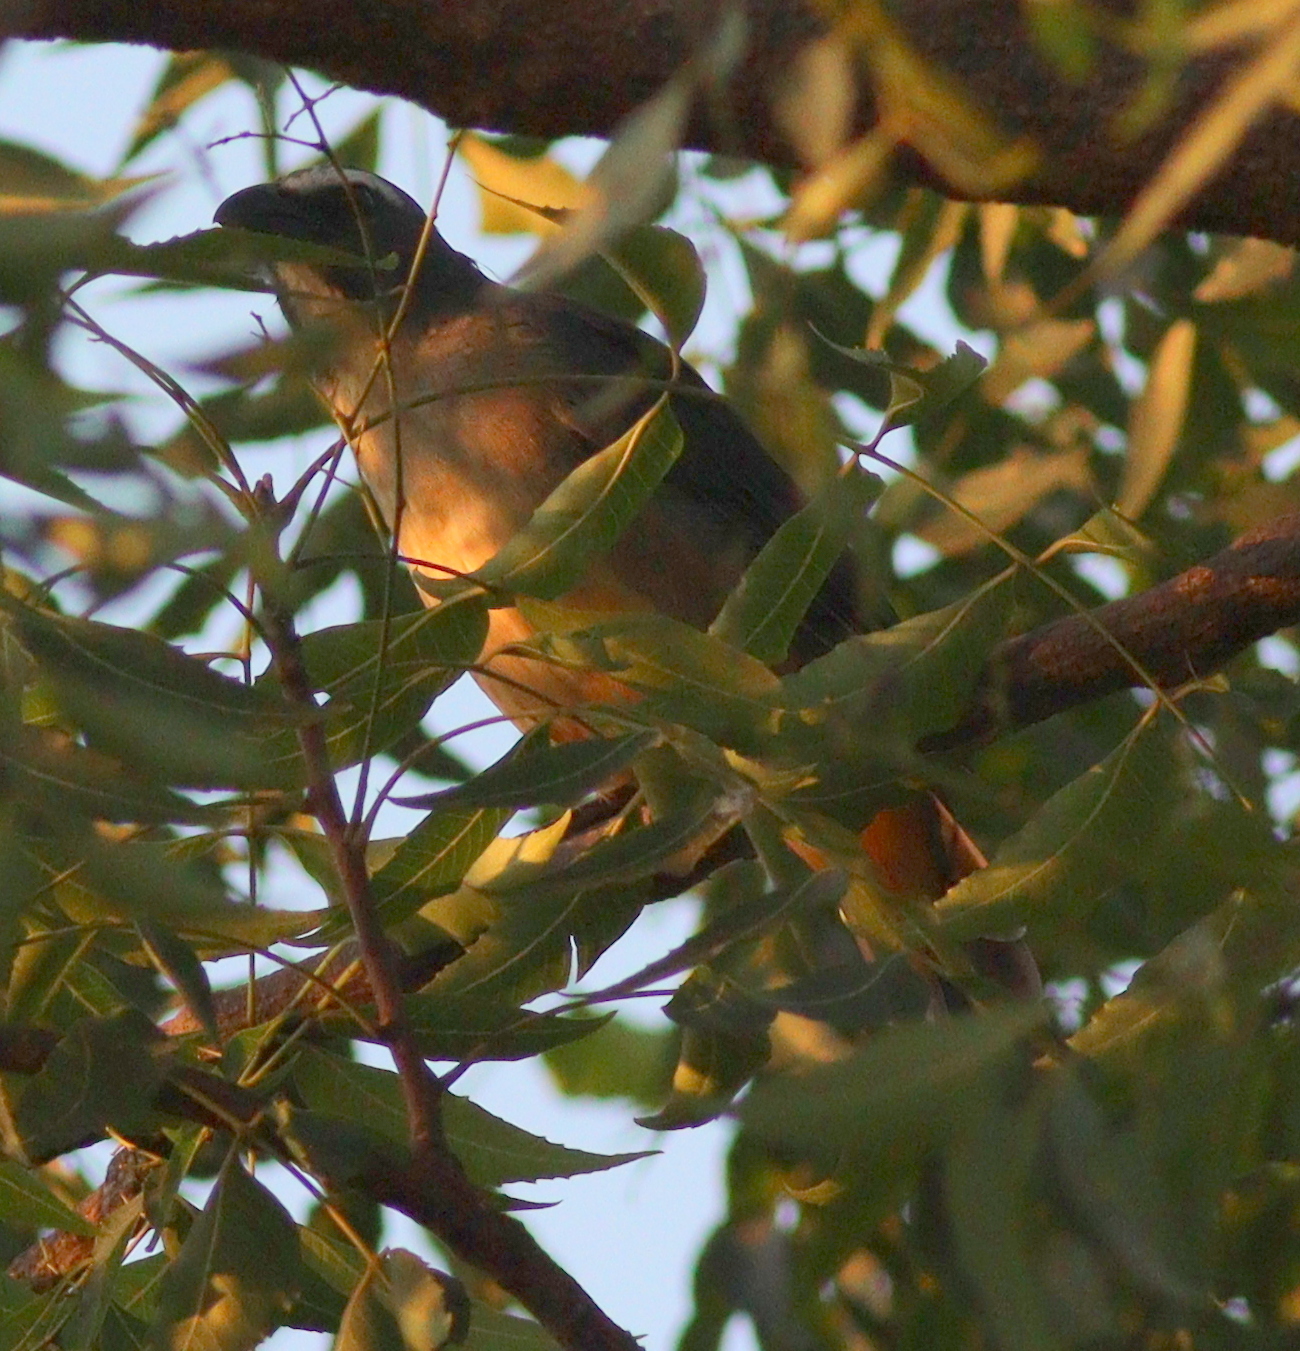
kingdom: Animalia
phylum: Chordata
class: Aves
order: Passeriformes
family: Thraupidae
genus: Saltator
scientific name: Saltator coerulescens
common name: Grayish saltator
